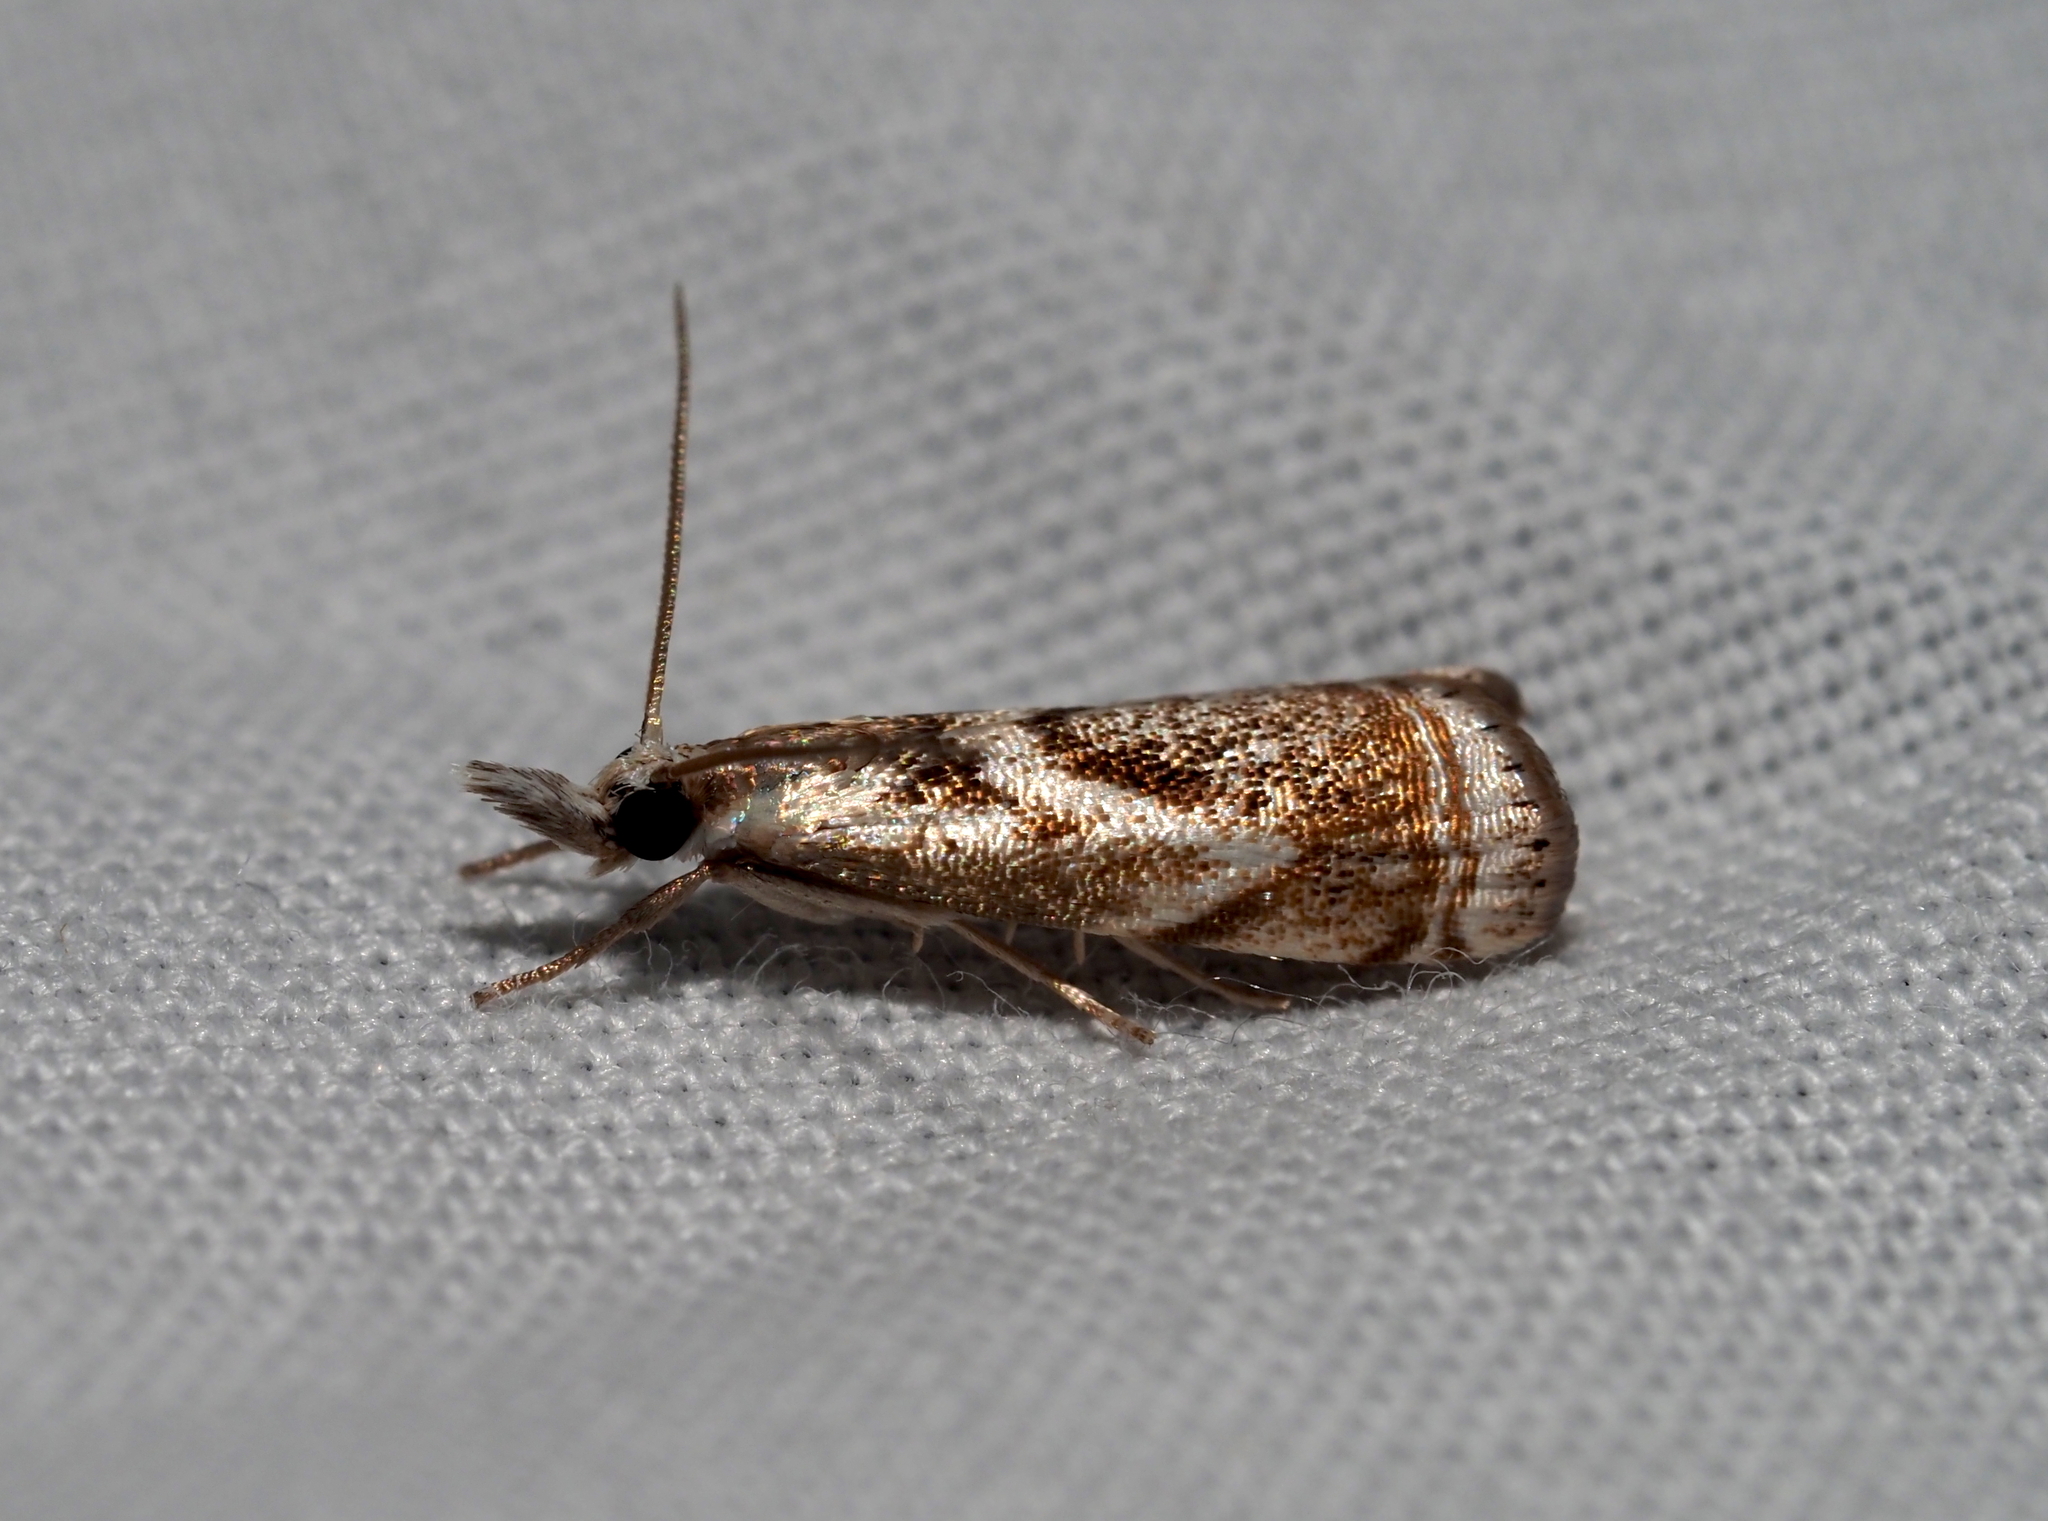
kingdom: Animalia
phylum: Arthropoda
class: Insecta
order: Lepidoptera
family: Crambidae
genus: Microcrambus
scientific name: Microcrambus elegans
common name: Elegant grass-veneer
